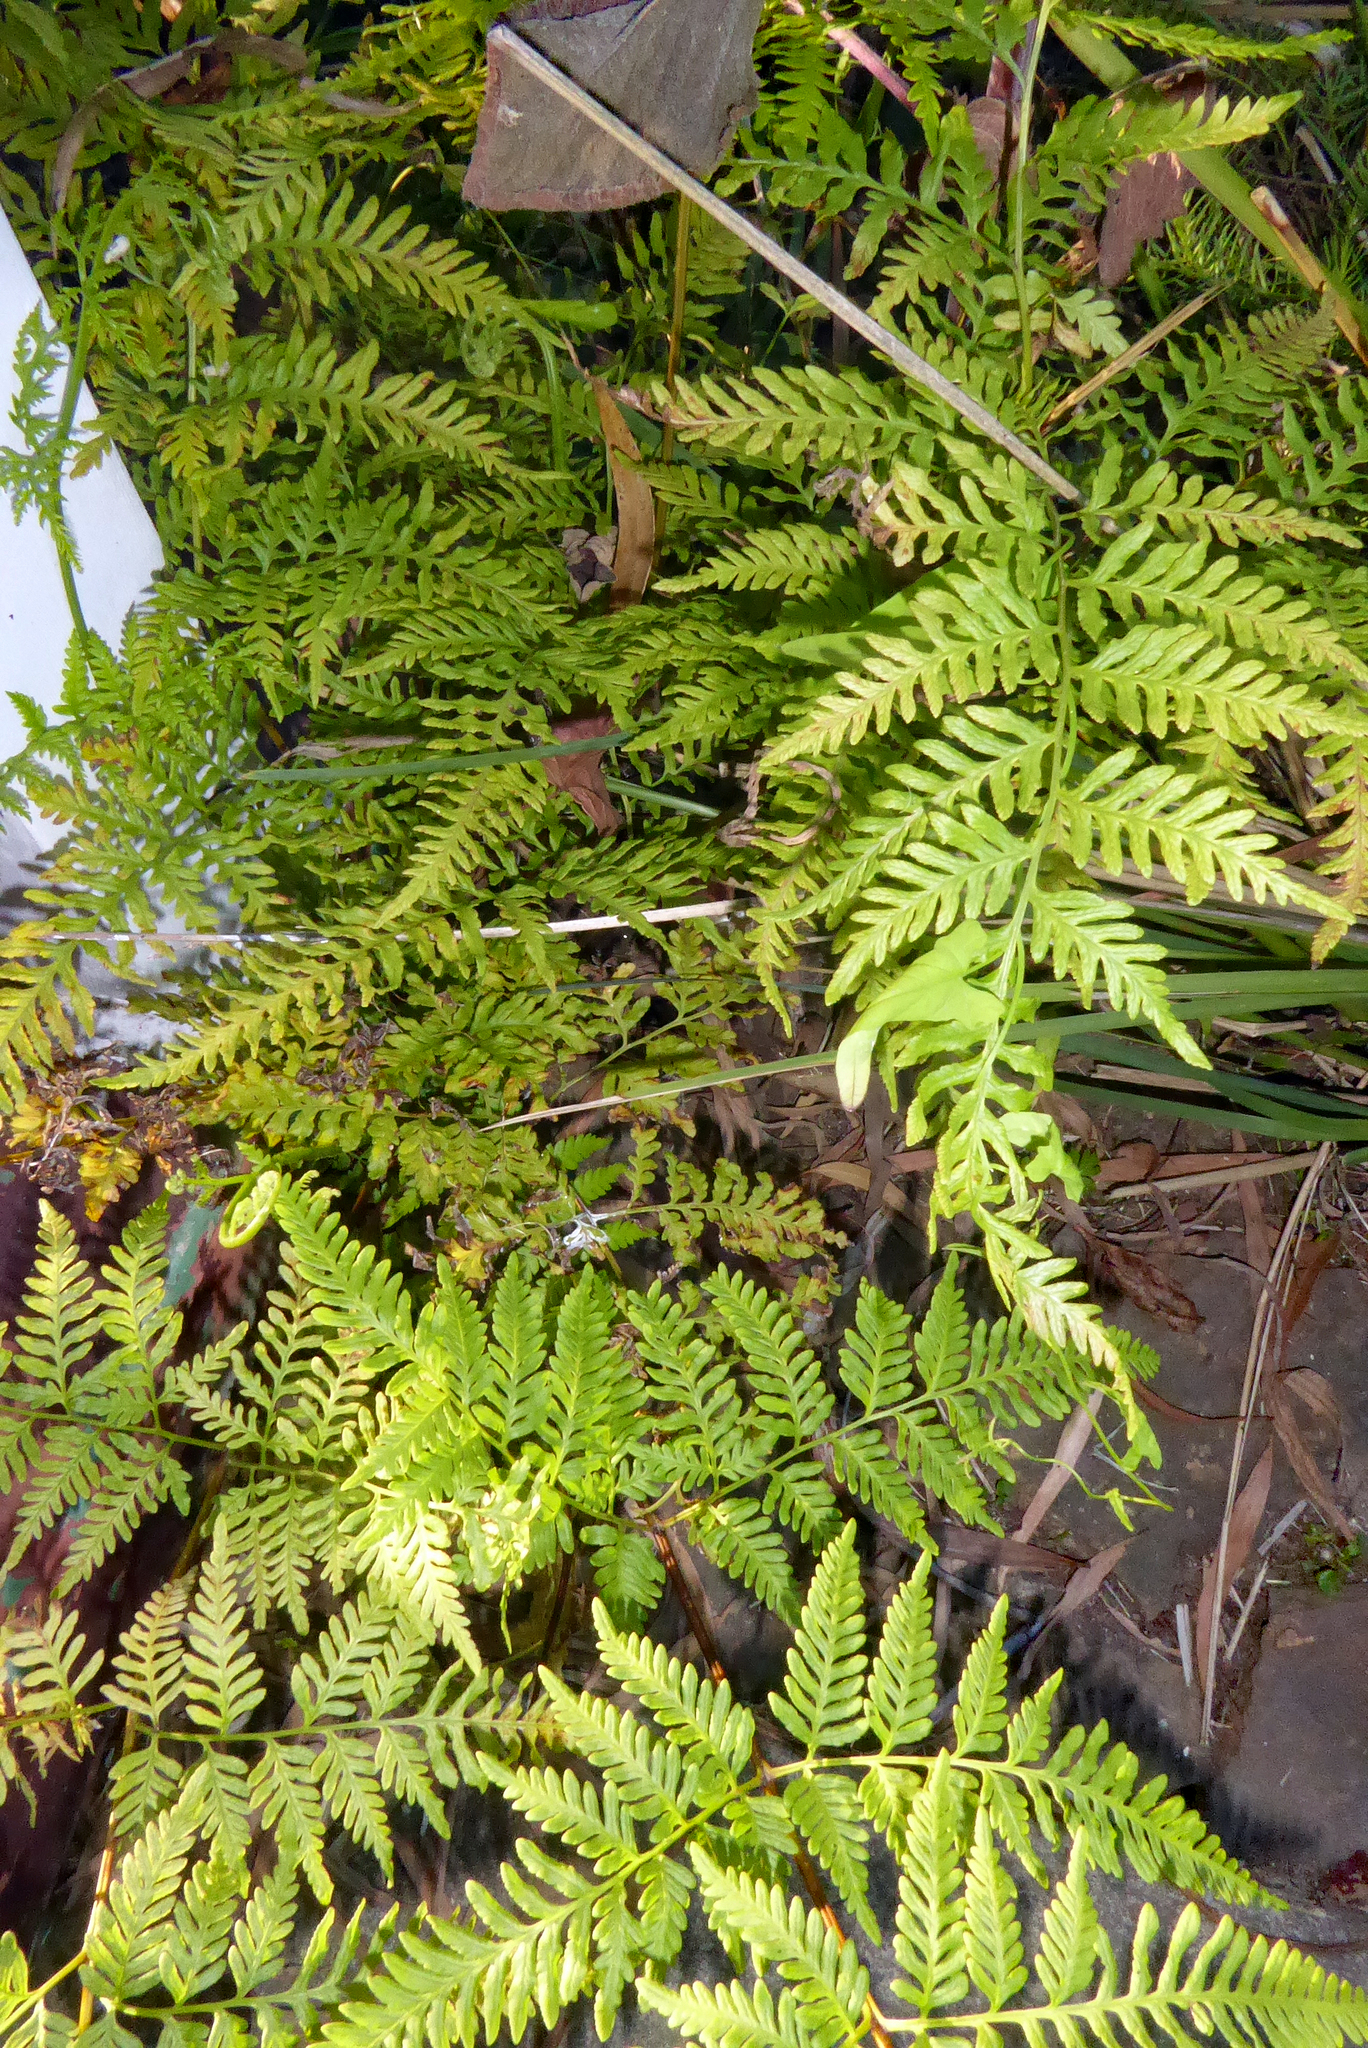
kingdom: Plantae
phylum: Tracheophyta
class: Polypodiopsida
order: Polypodiales
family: Pteridaceae
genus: Pteris
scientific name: Pteris tremula
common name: Australian brake
